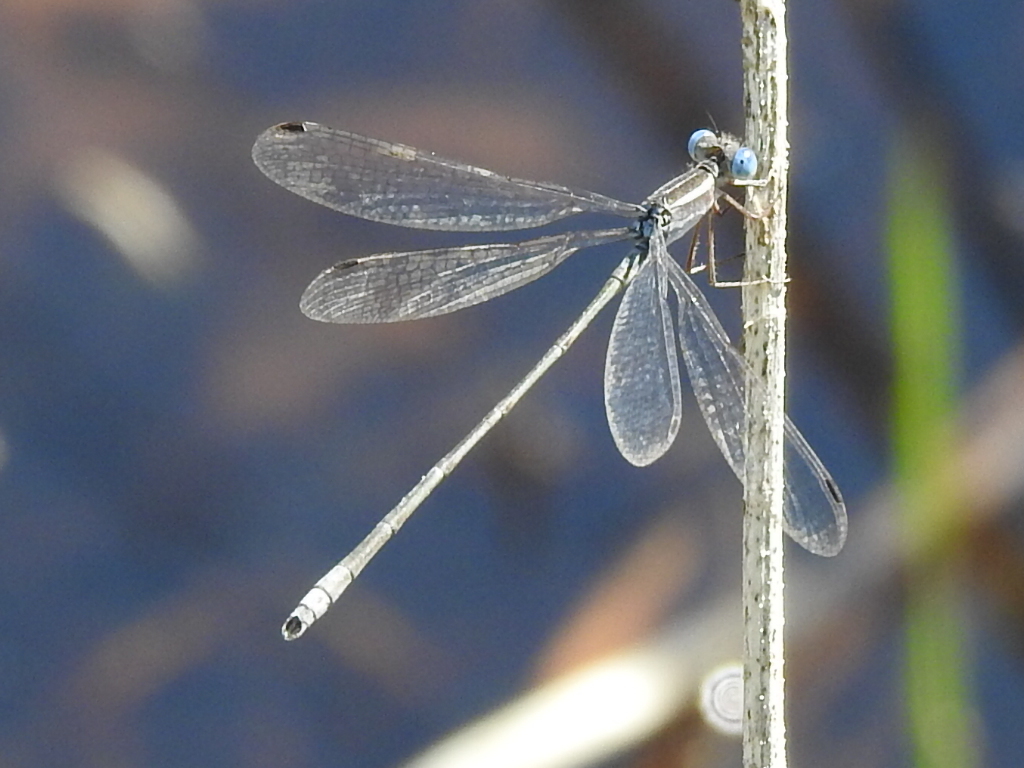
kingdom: Animalia
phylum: Arthropoda
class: Insecta
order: Odonata
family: Lestidae
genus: Lestes
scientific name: Lestes alacer
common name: Plateau spreadwing
